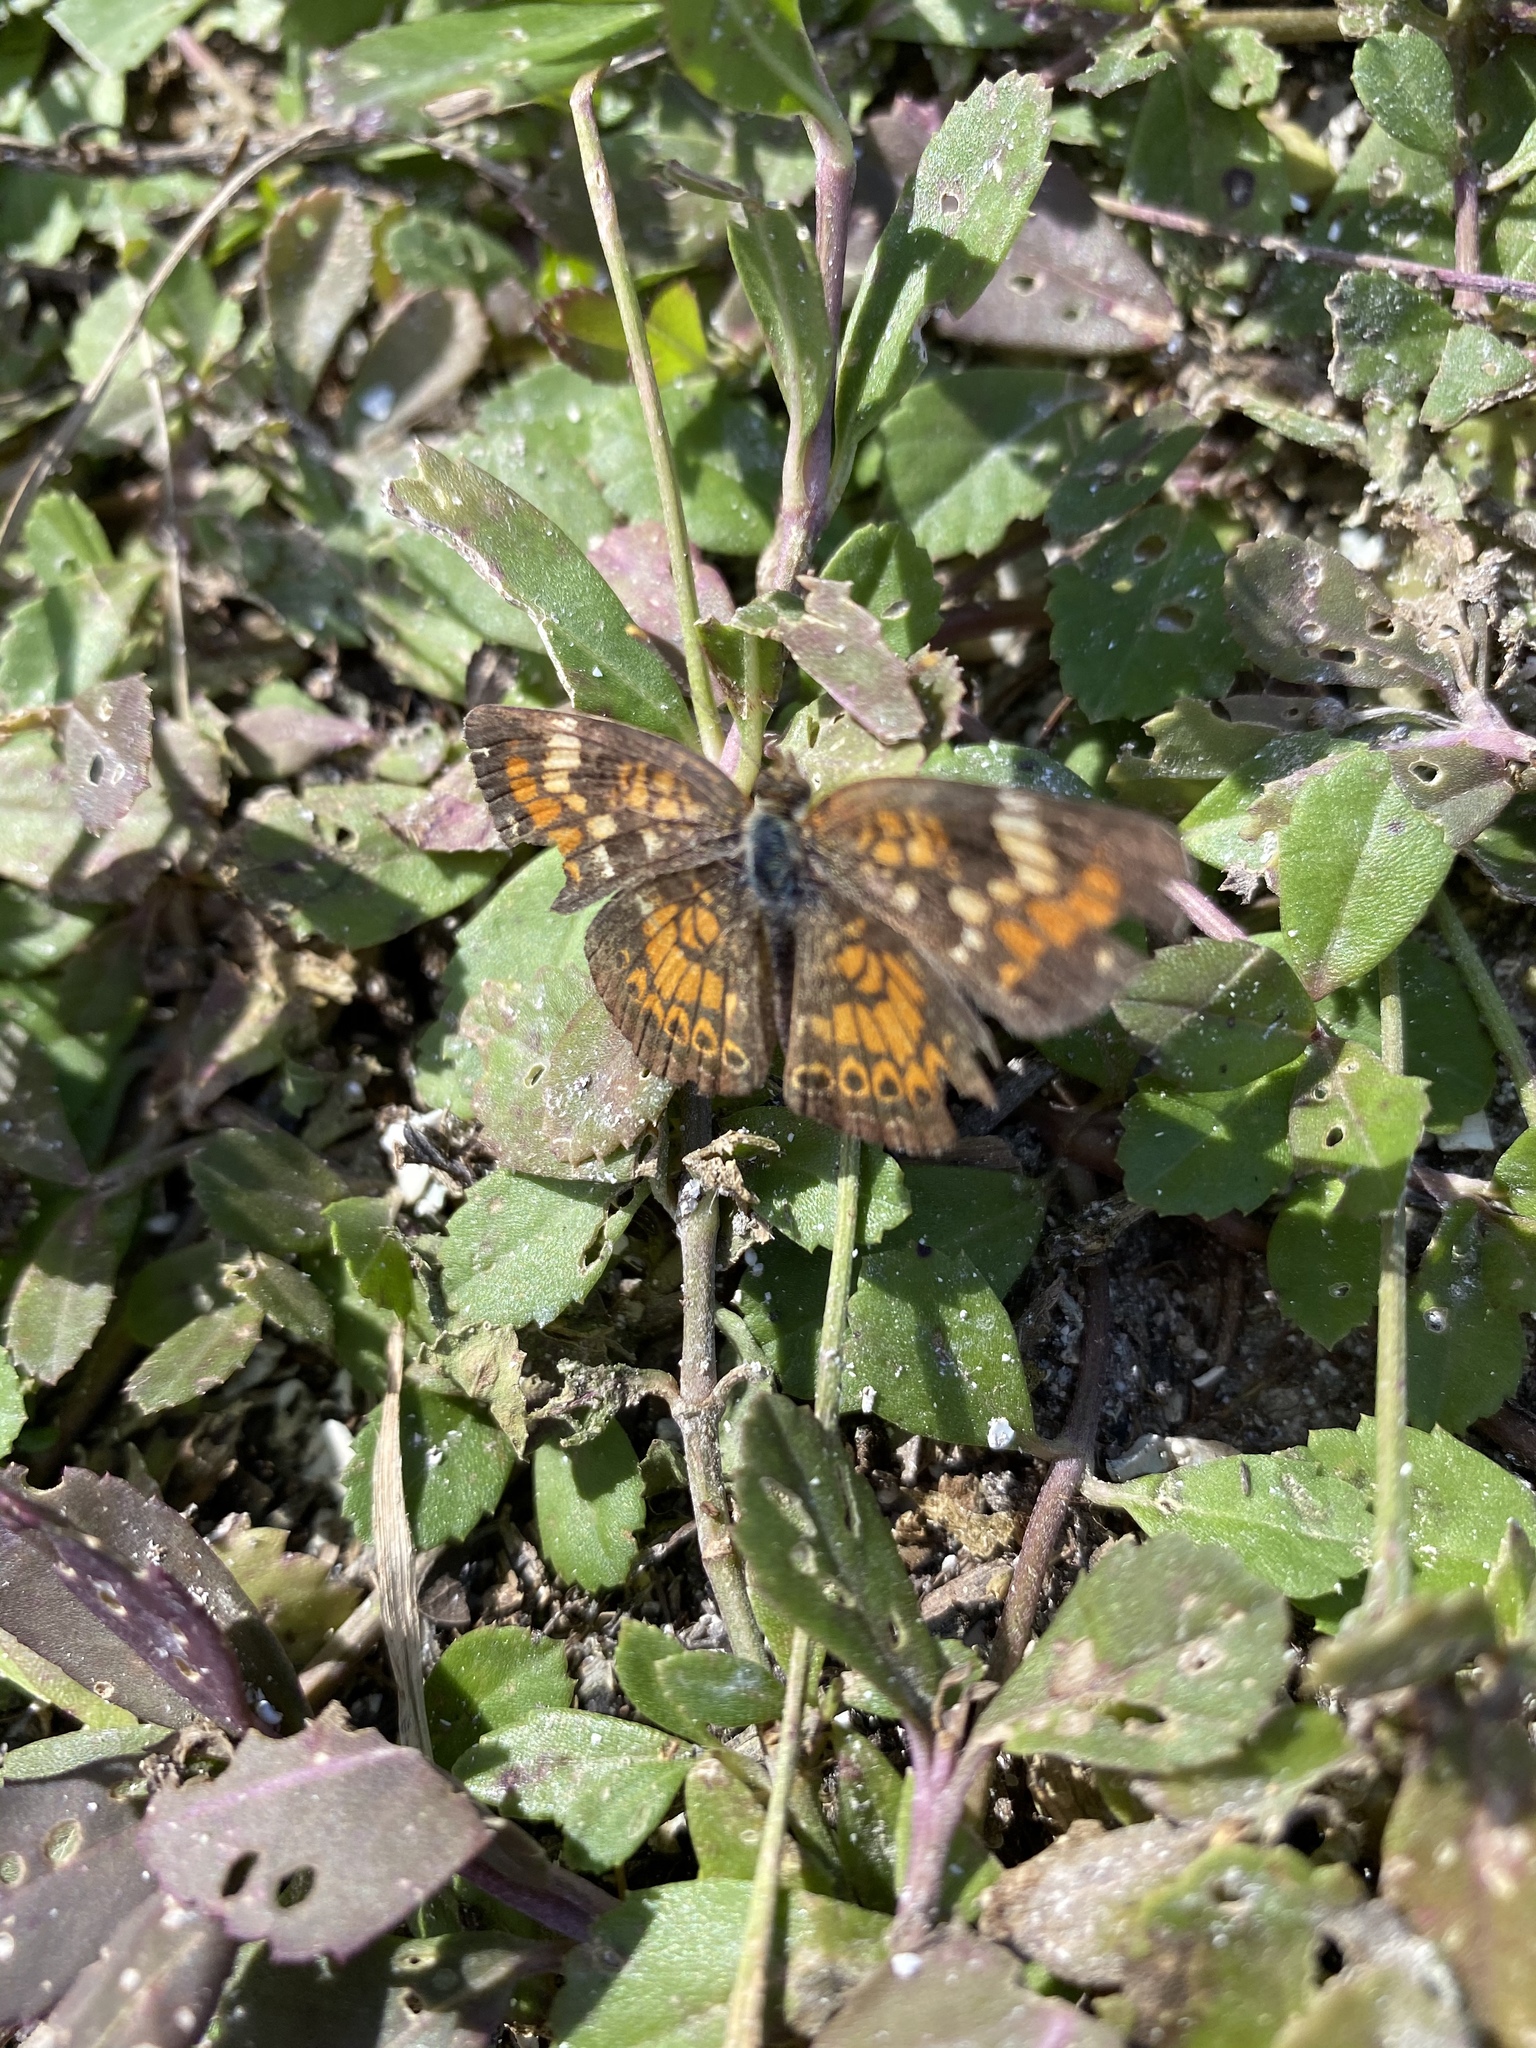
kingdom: Animalia
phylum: Arthropoda
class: Insecta
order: Lepidoptera
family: Nymphalidae
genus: Phyciodes
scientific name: Phyciodes phaon
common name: Phaon crescent
